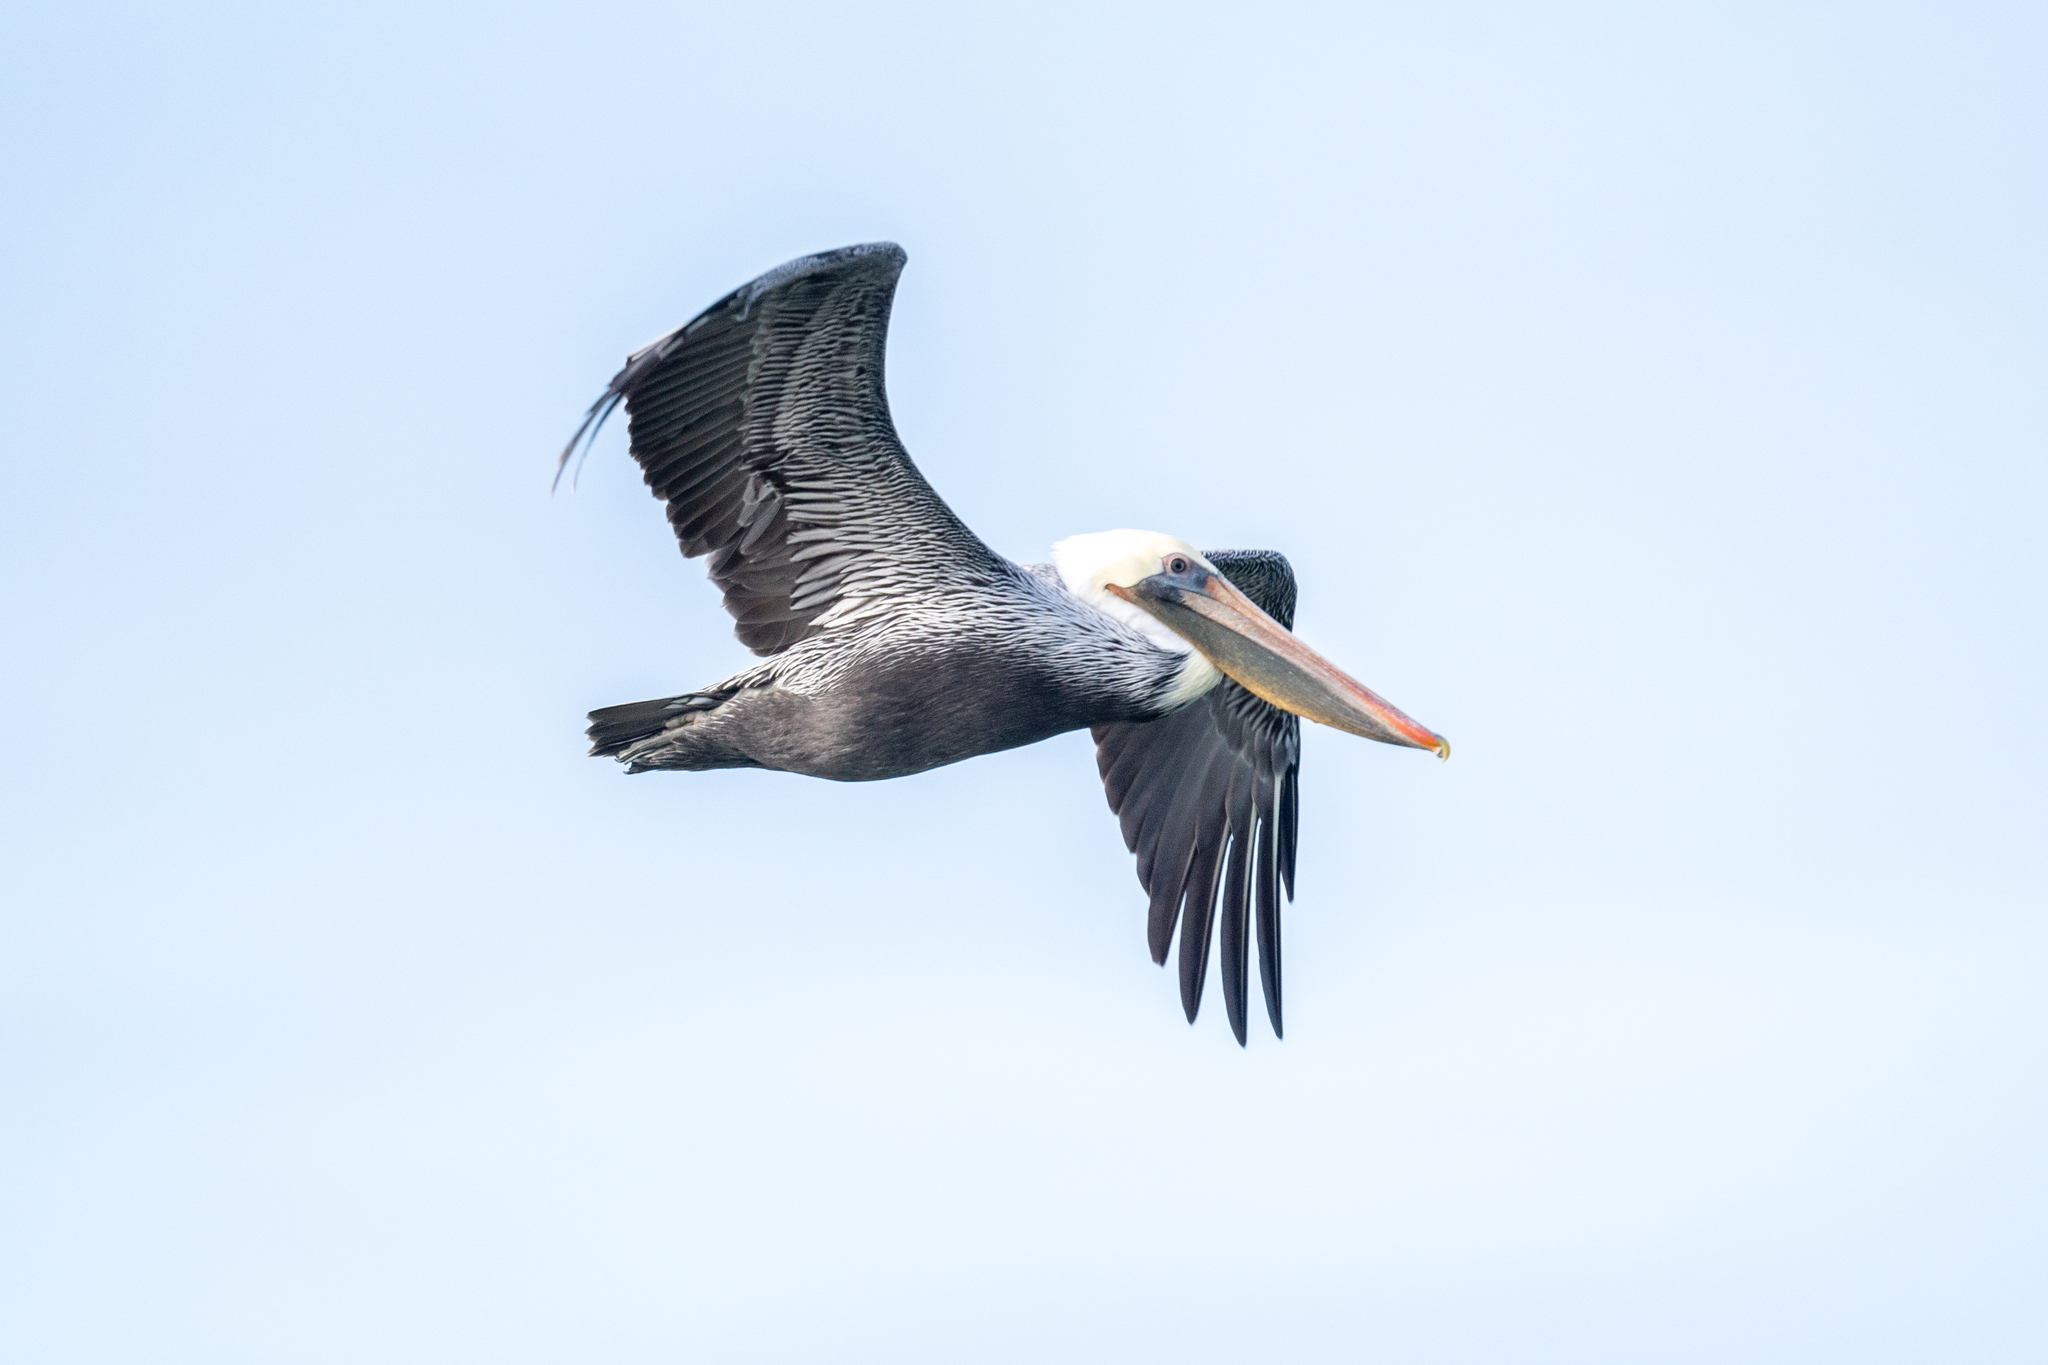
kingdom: Animalia
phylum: Chordata
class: Aves
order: Pelecaniformes
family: Pelecanidae
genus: Pelecanus
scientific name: Pelecanus occidentalis
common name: Brown pelican
